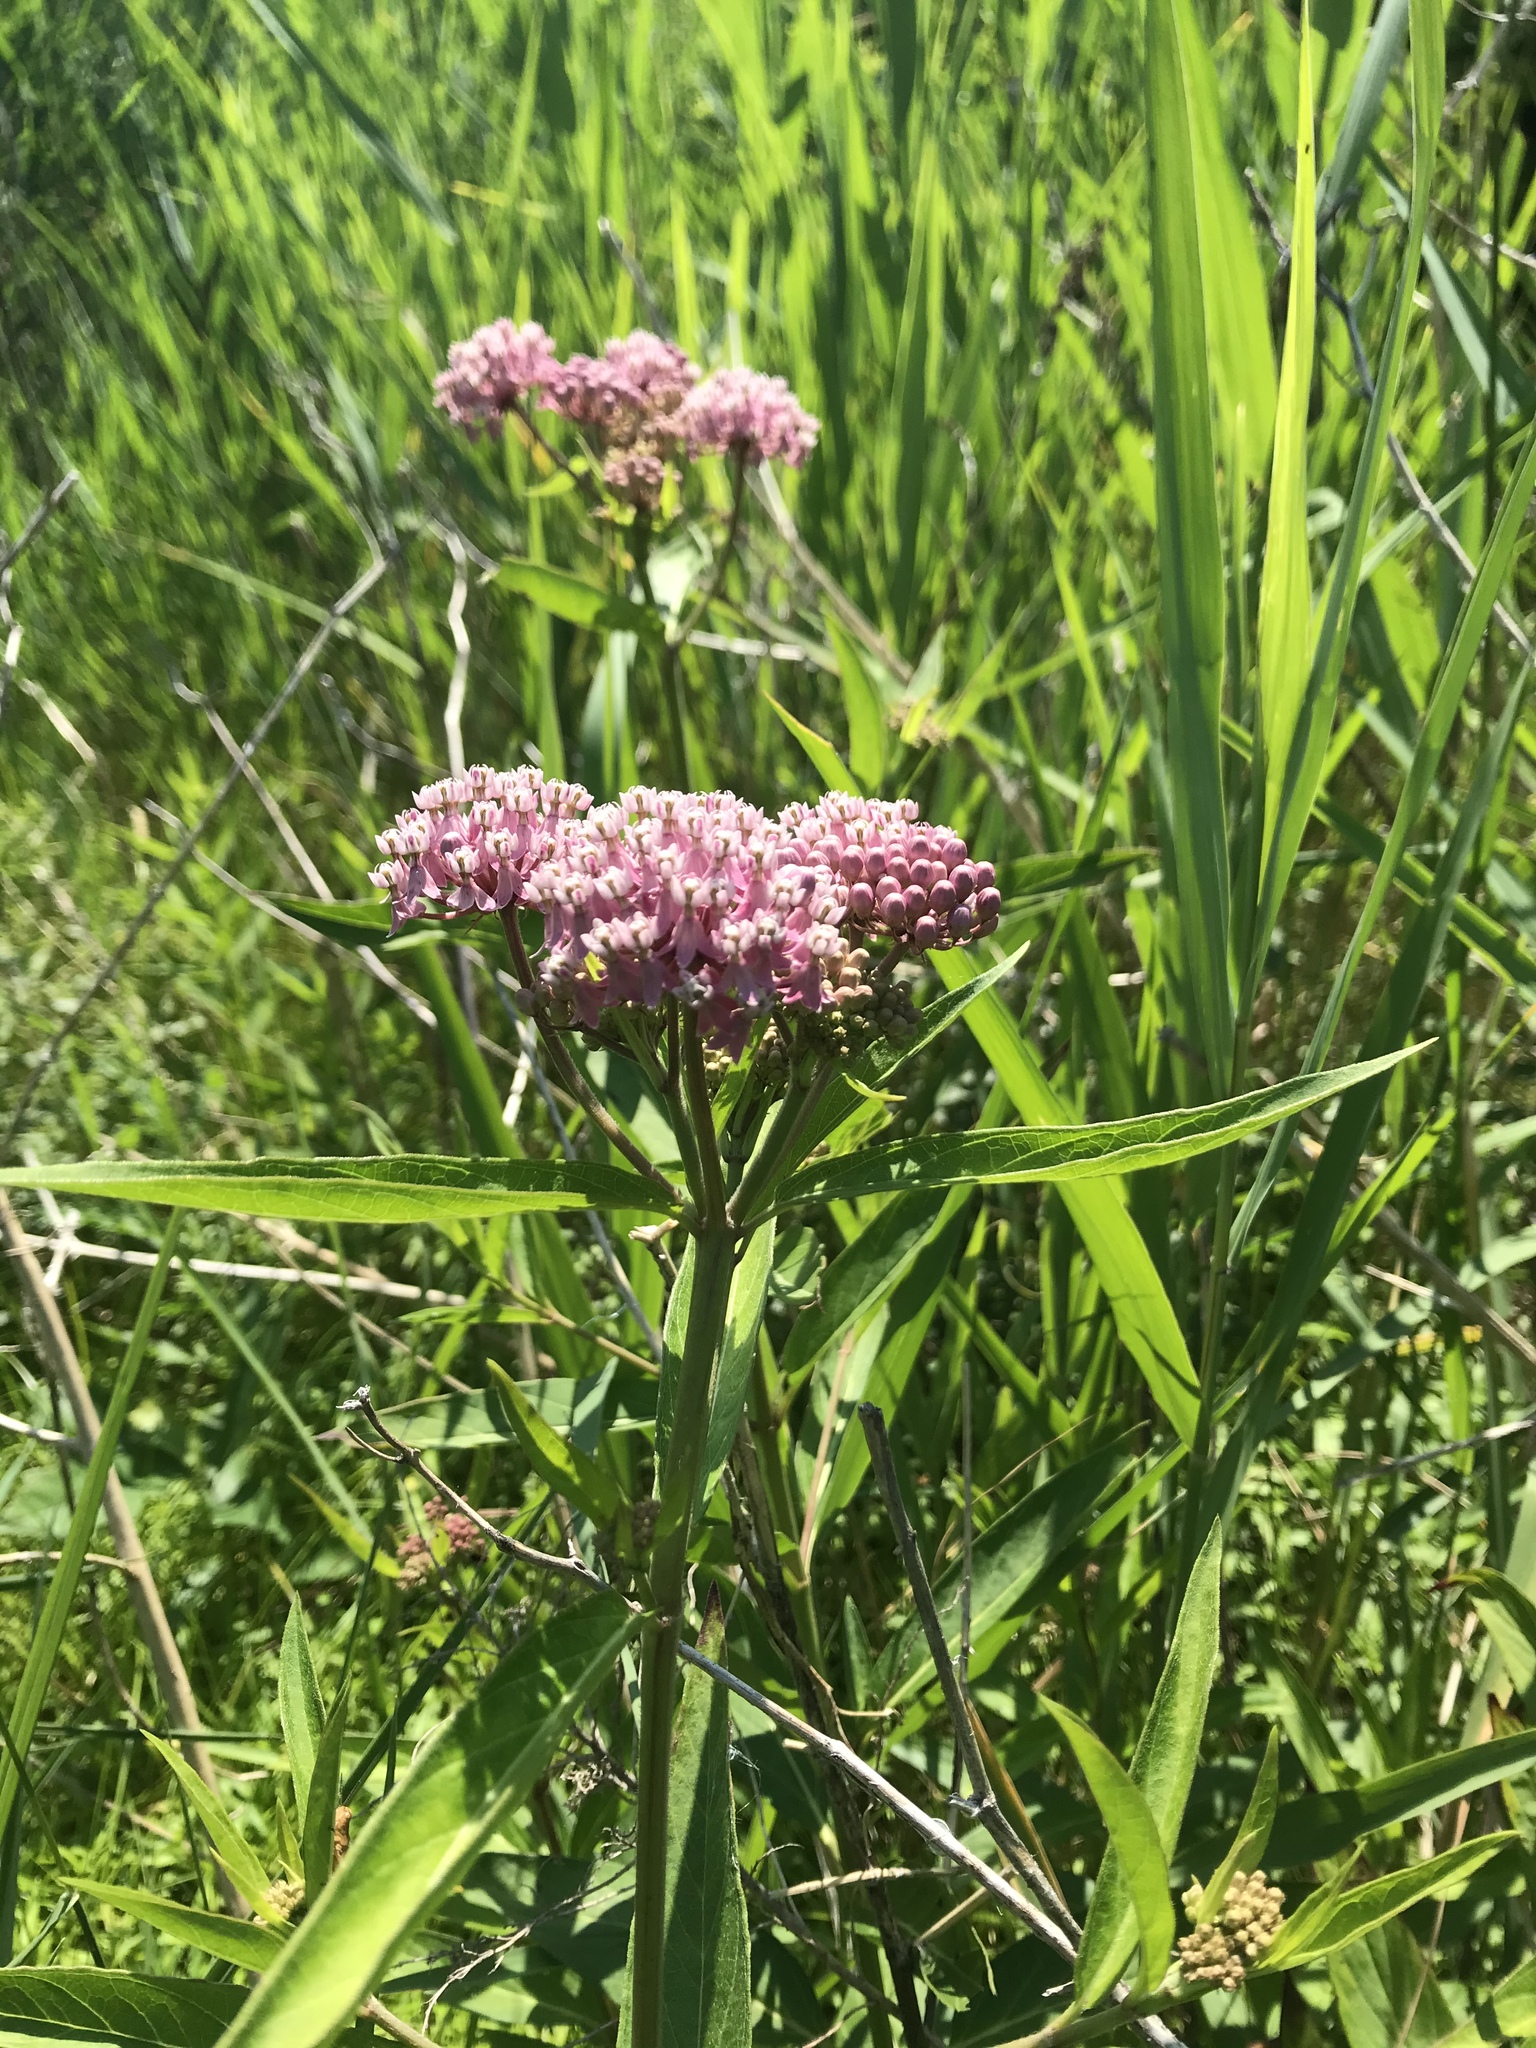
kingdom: Plantae
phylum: Tracheophyta
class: Magnoliopsida
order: Gentianales
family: Apocynaceae
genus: Asclepias
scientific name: Asclepias incarnata
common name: Swamp milkweed
